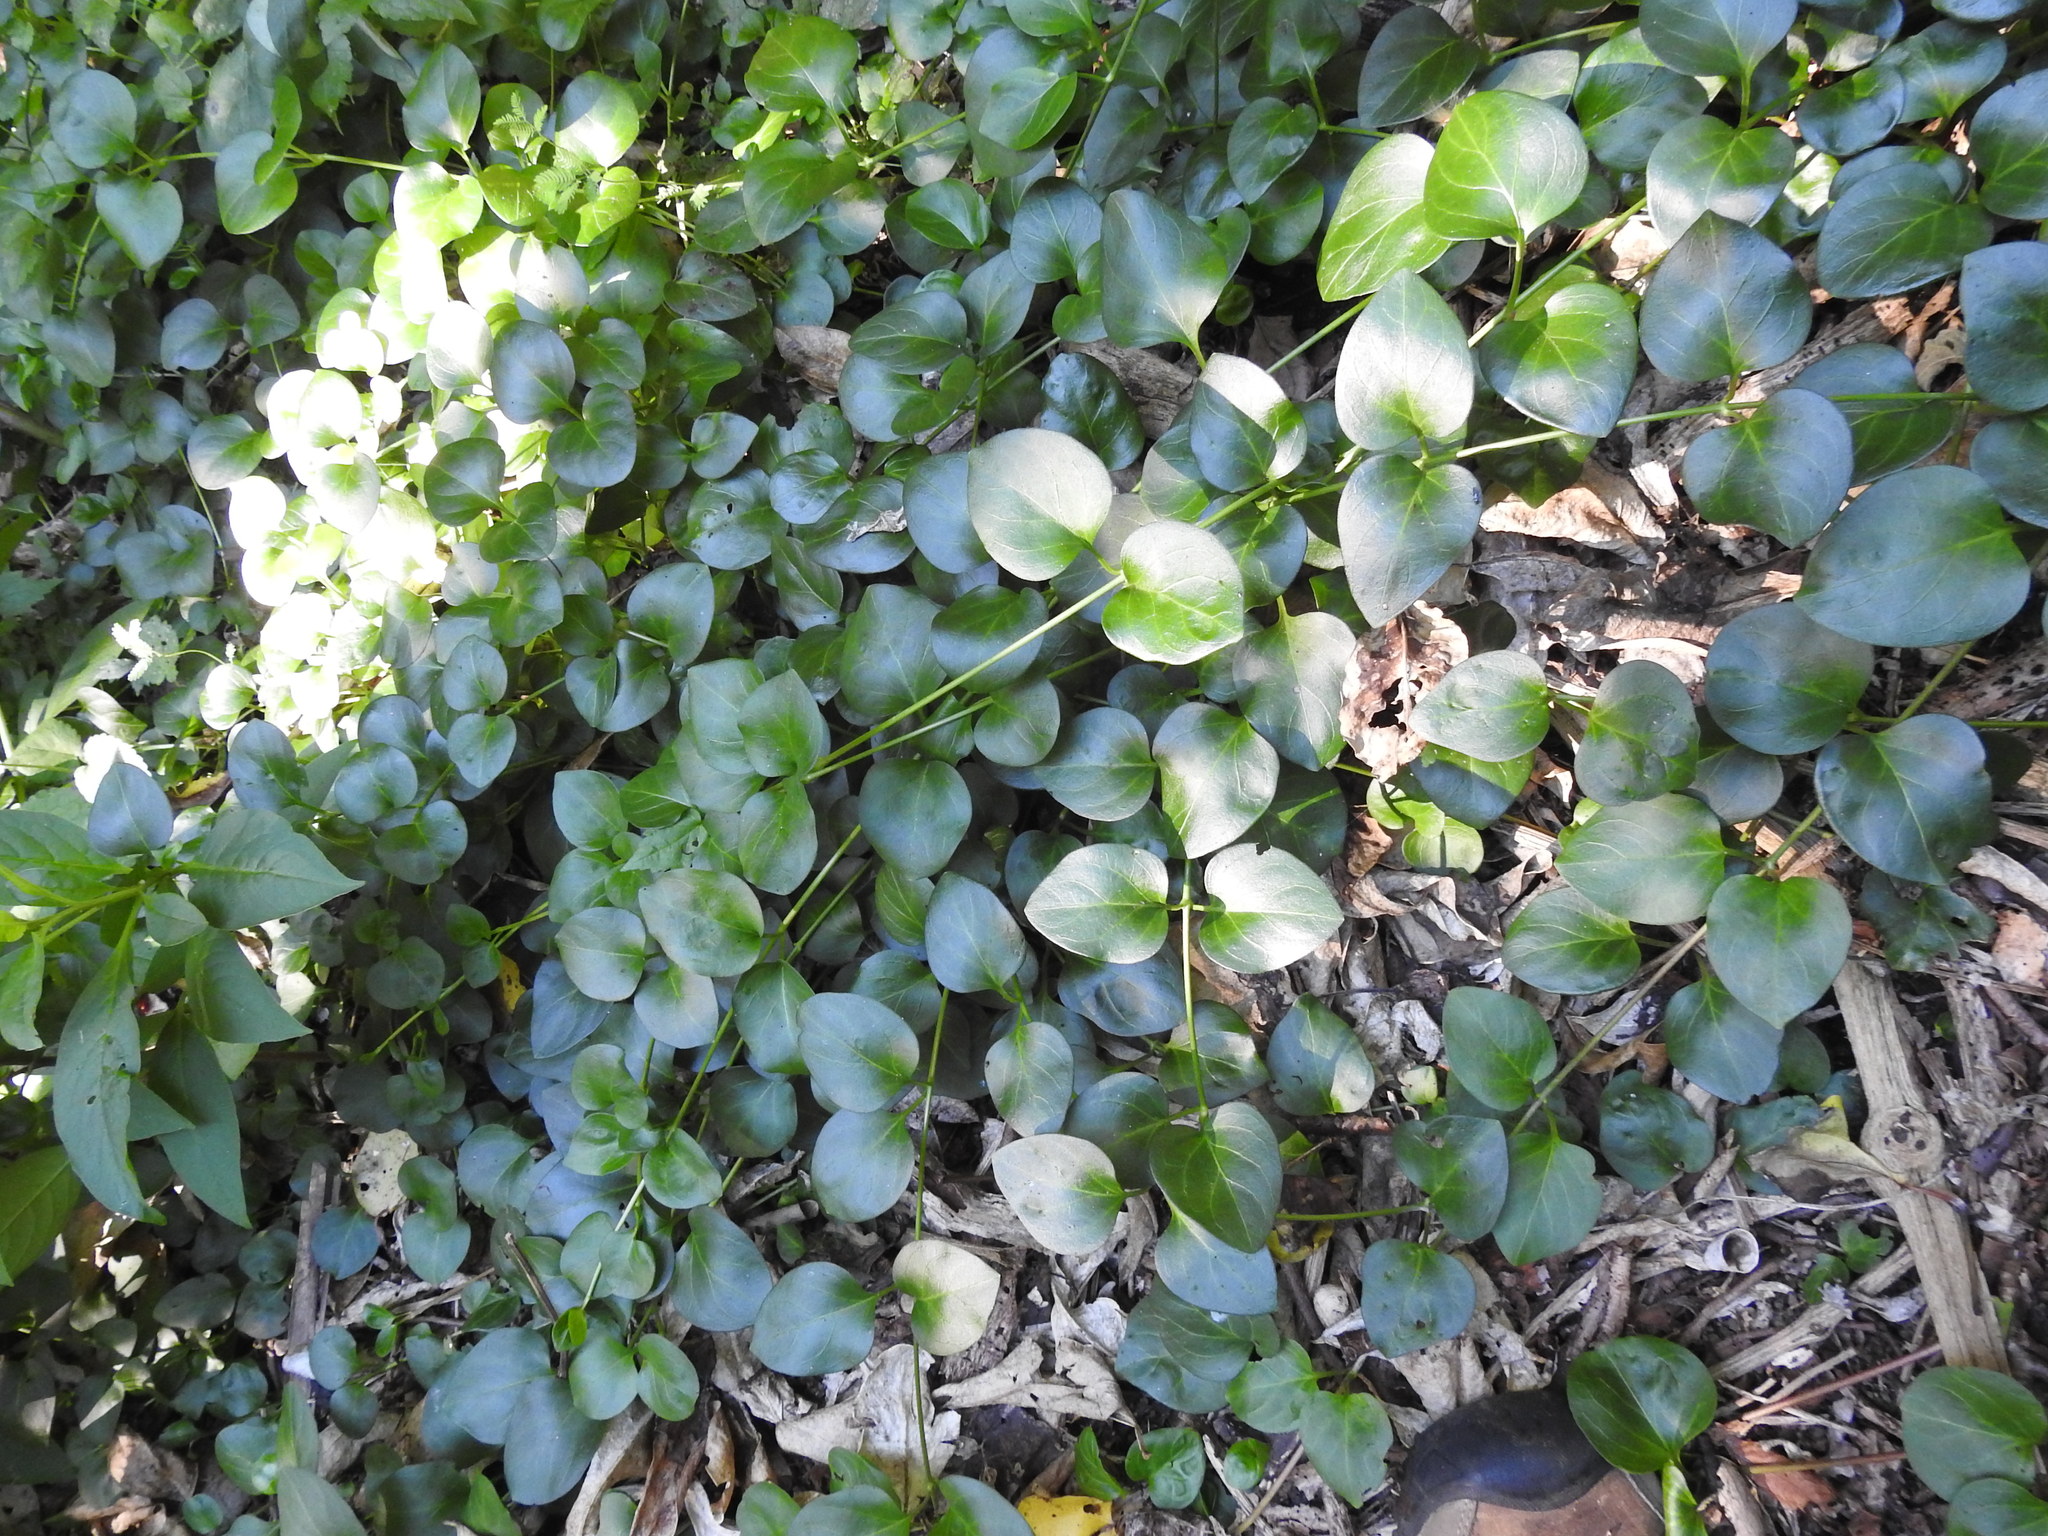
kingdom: Plantae
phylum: Tracheophyta
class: Magnoliopsida
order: Gentianales
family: Apocynaceae
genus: Vinca
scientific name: Vinca major
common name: Greater periwinkle
